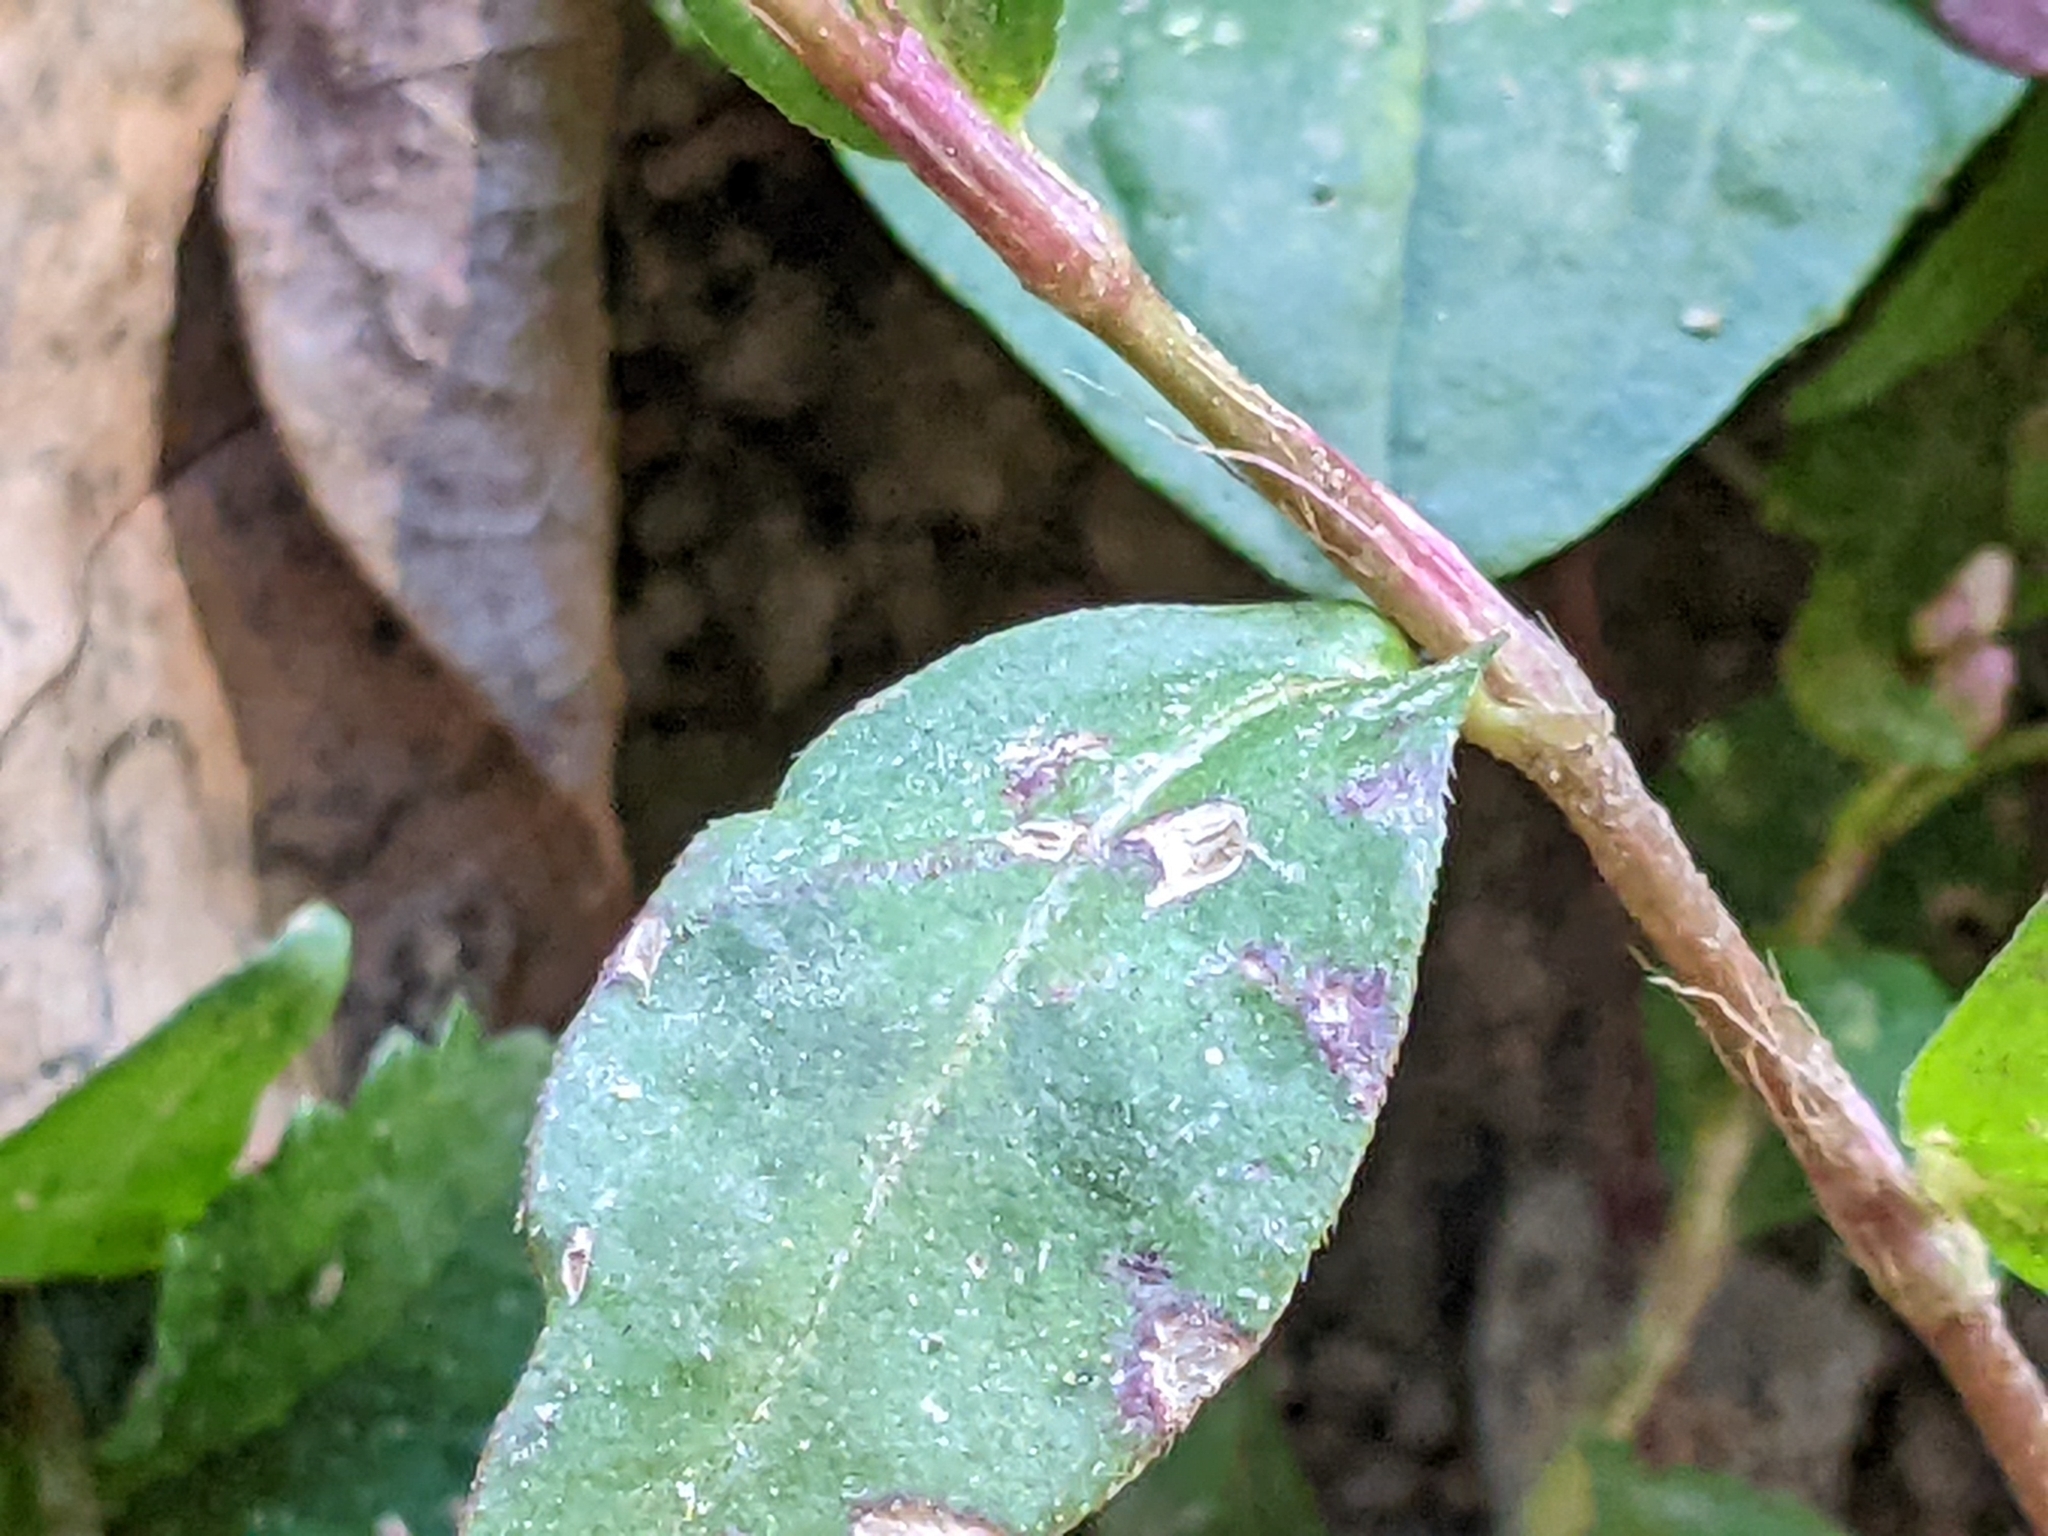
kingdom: Plantae
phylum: Tracheophyta
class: Magnoliopsida
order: Caryophyllales
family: Polygonaceae
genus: Persicaria
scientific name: Persicaria longiseta
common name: Bristly lady's-thumb
